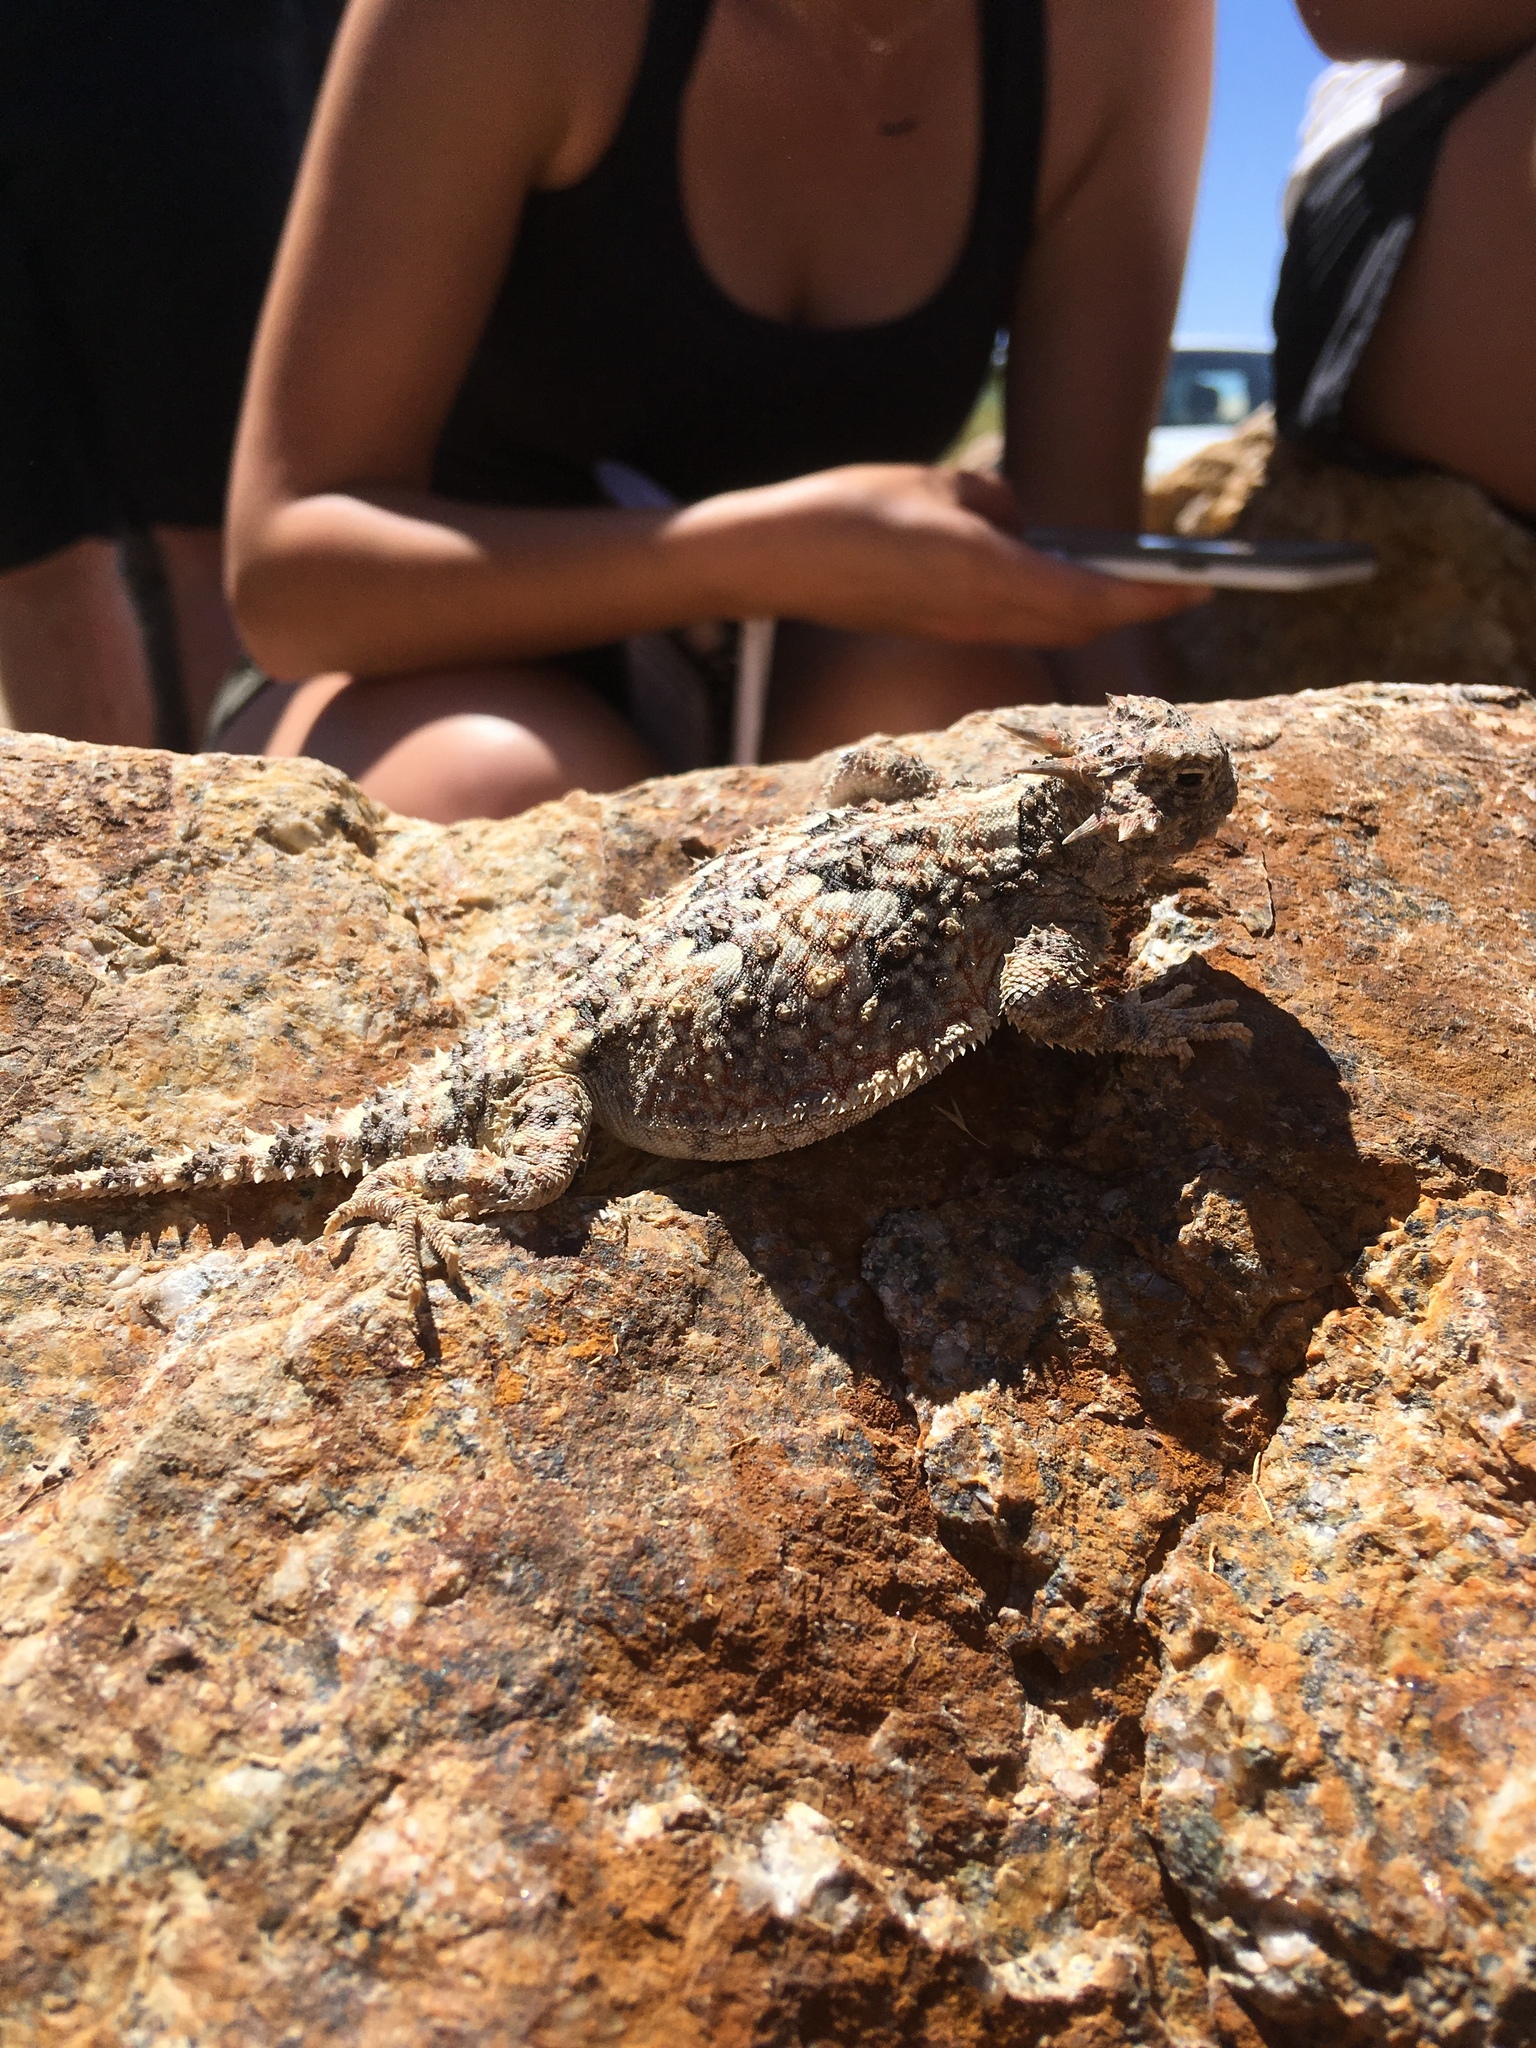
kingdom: Animalia
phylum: Chordata
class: Squamata
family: Phrynosomatidae
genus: Phrynosoma
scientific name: Phrynosoma platyrhinos
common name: Desert horned lizard
